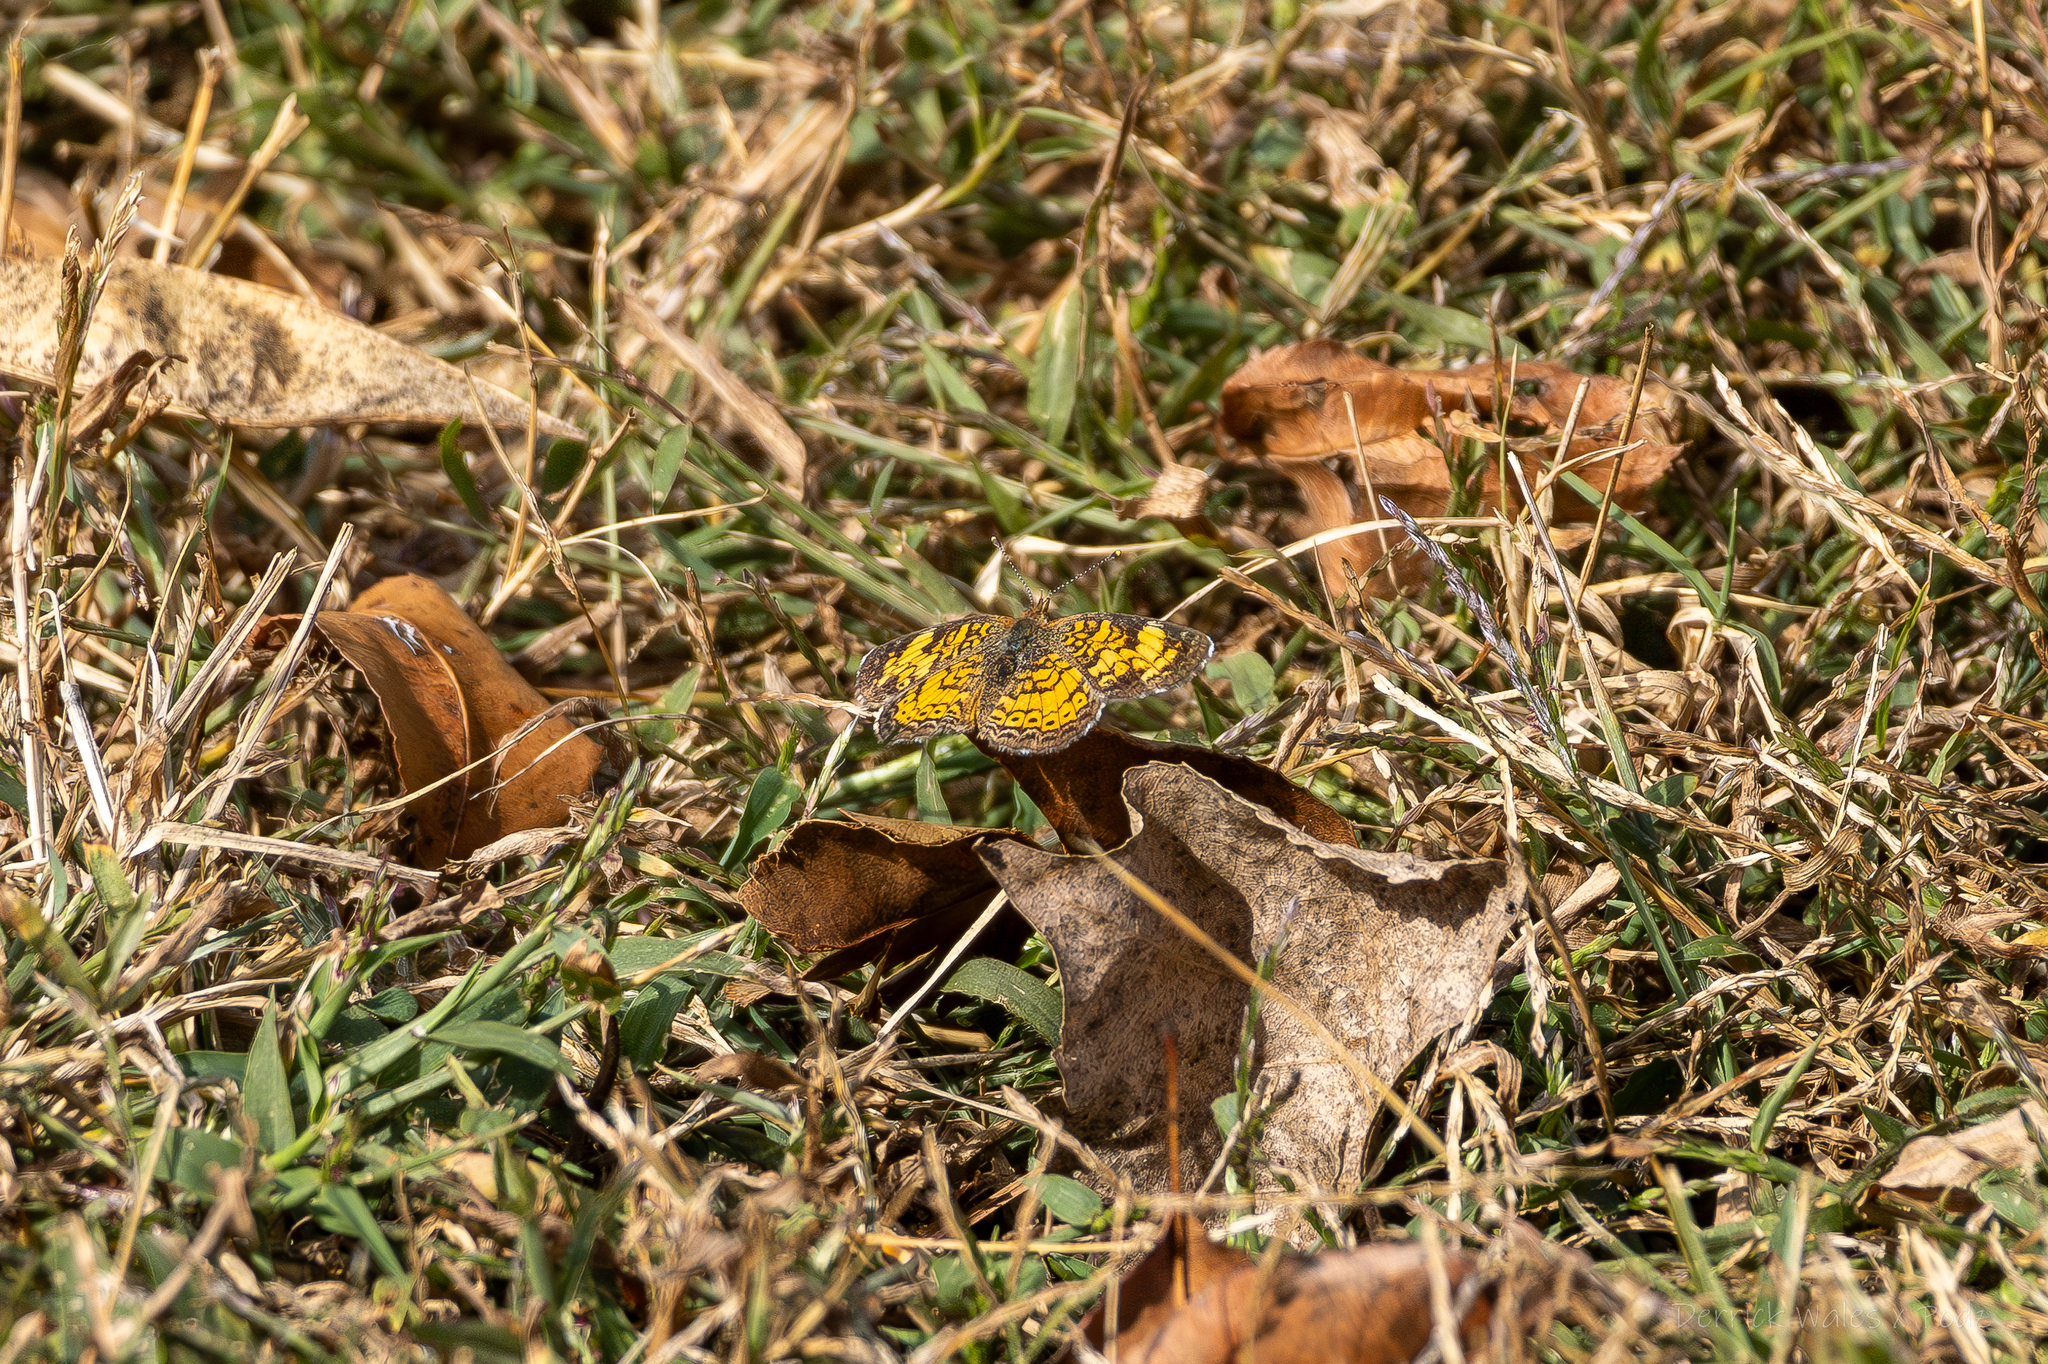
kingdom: Animalia
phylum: Arthropoda
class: Insecta
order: Lepidoptera
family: Nymphalidae
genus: Phyciodes
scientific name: Phyciodes tharos
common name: Pearl crescent
